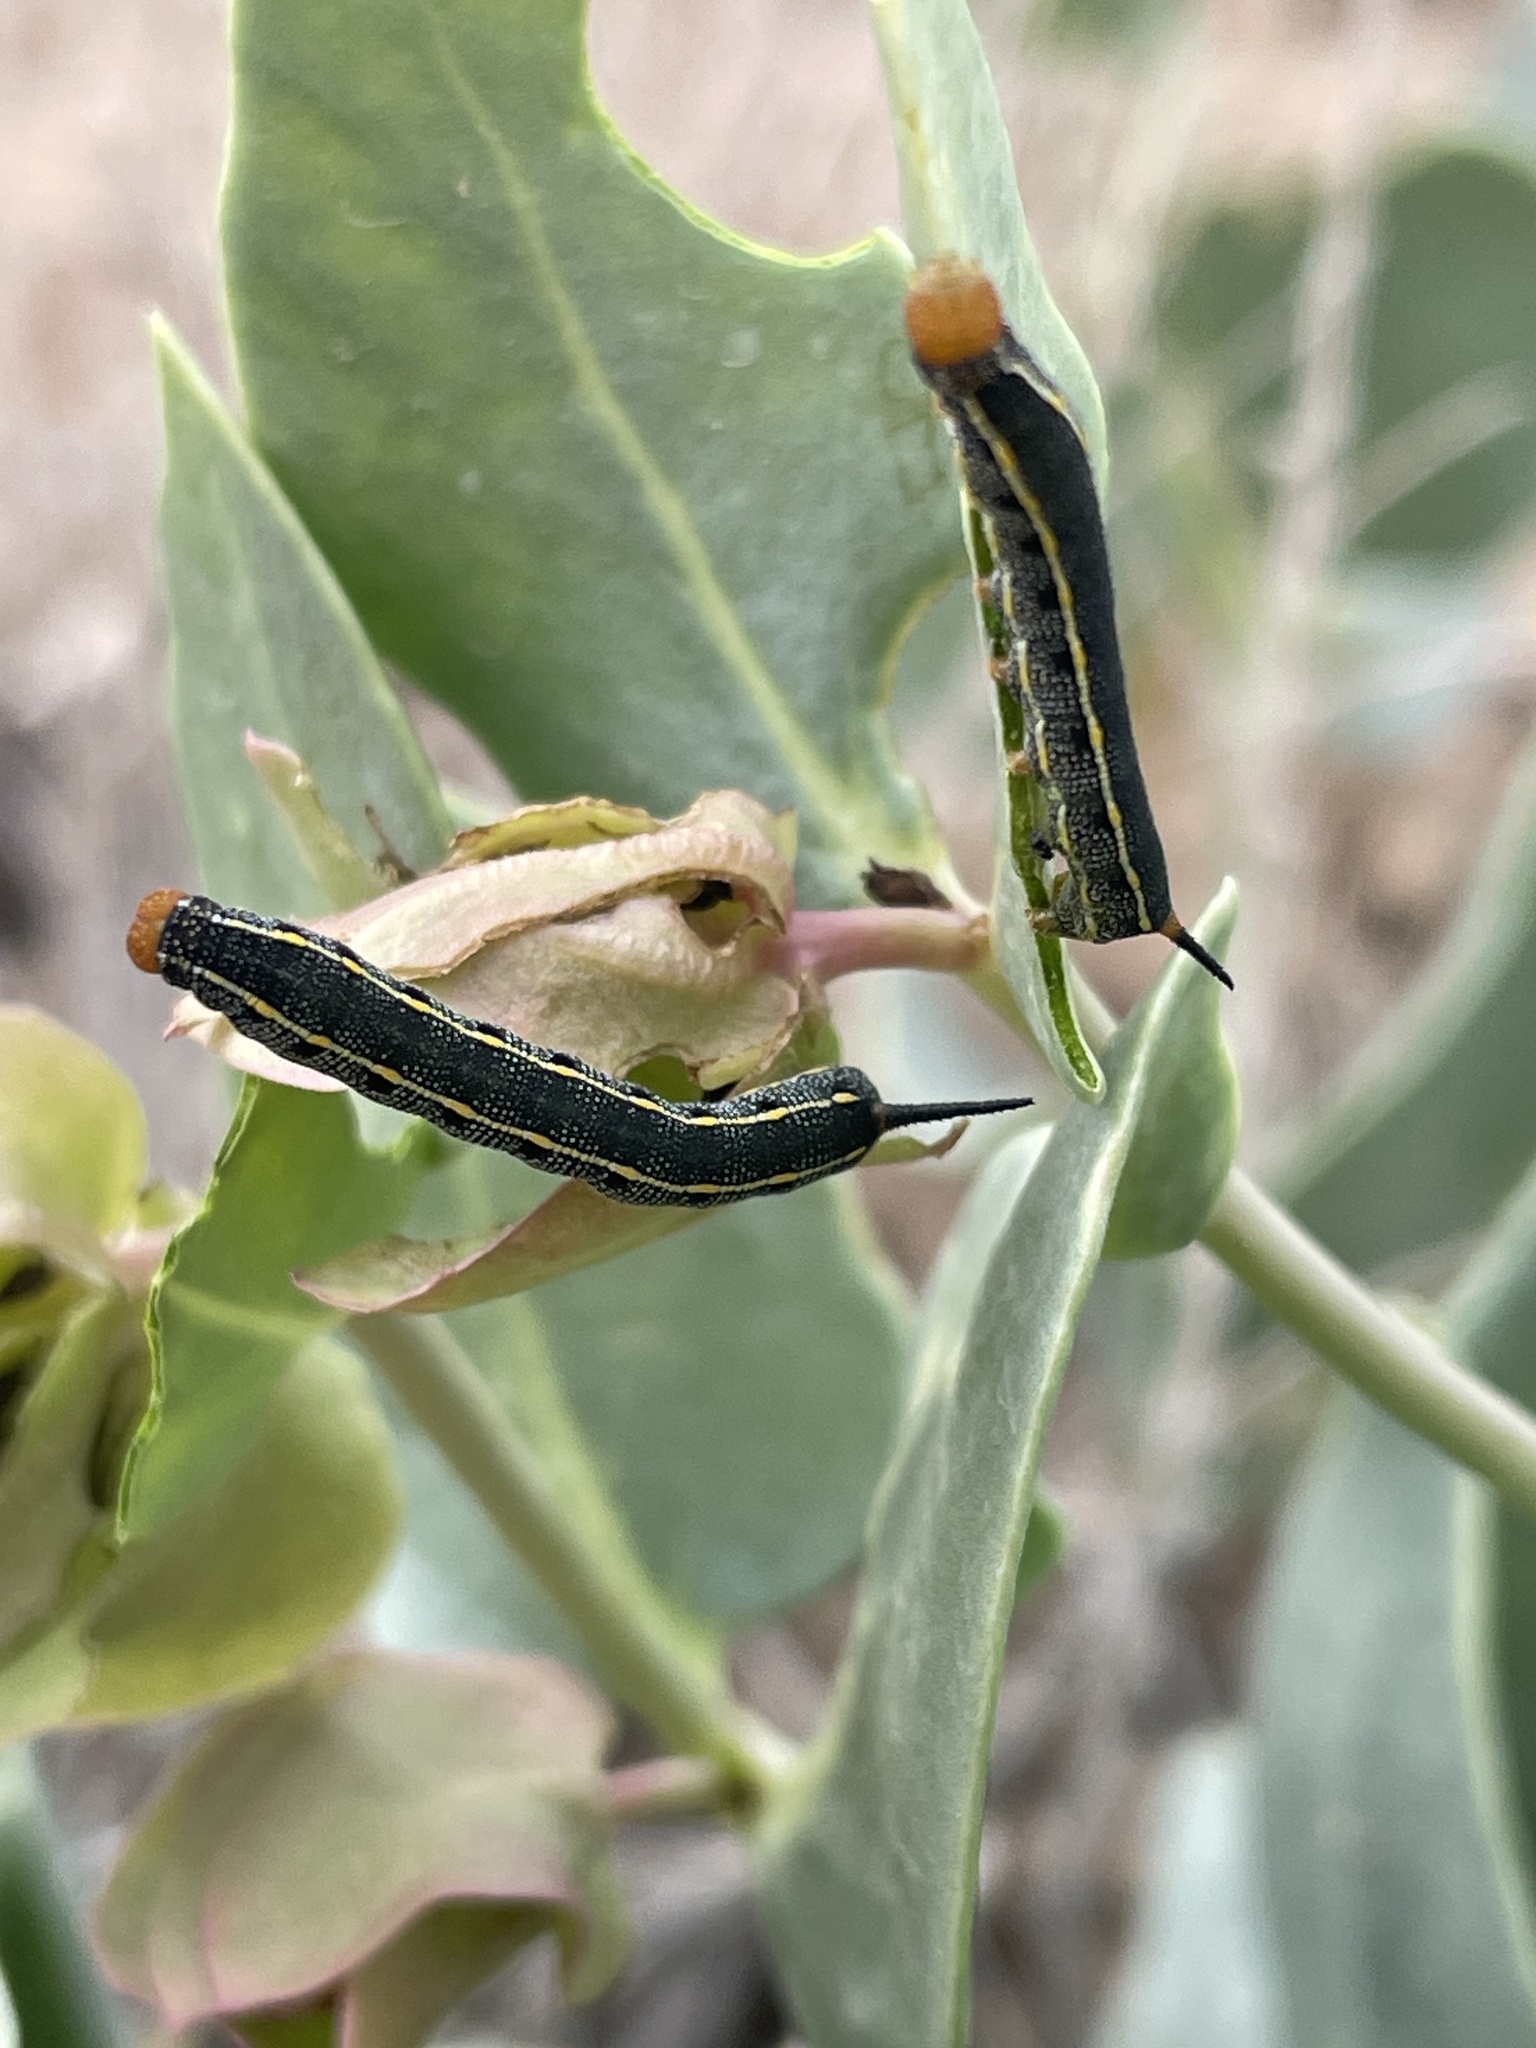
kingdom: Animalia
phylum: Arthropoda
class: Insecta
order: Lepidoptera
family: Sphingidae
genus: Hyles
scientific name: Hyles lineata
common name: White-lined sphinx
